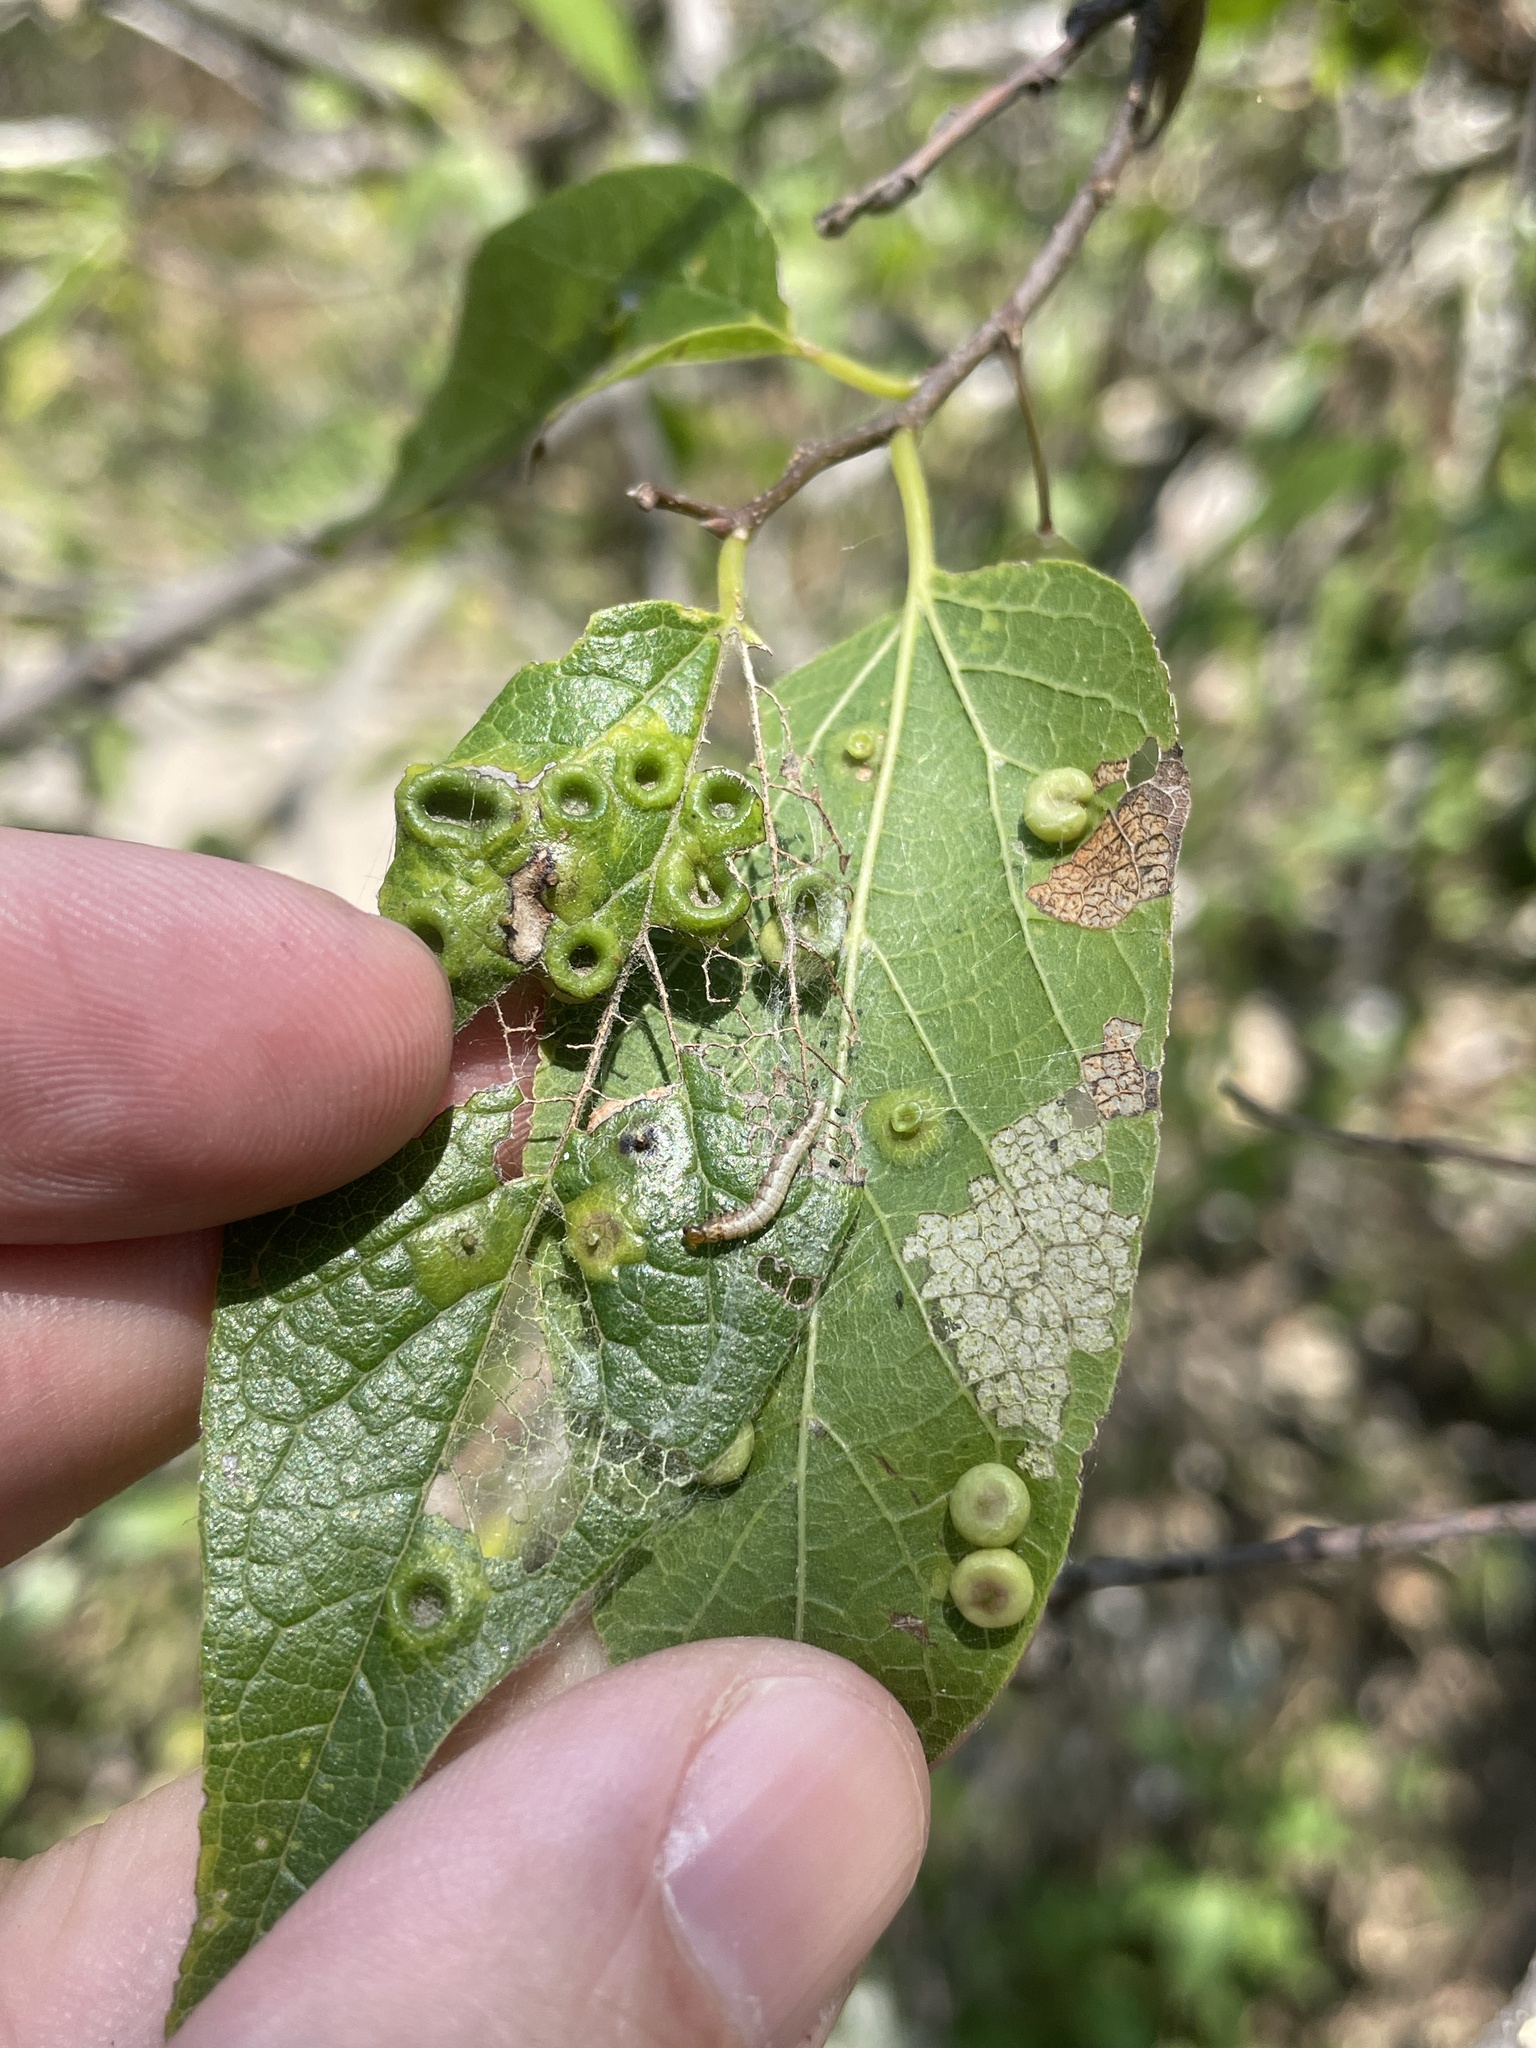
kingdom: Animalia
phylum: Arthropoda
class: Insecta
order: Hemiptera
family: Aphalaridae
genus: Pachypsylla
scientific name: Pachypsylla celtidismamma
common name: Hackberry nipplegall psyllid
